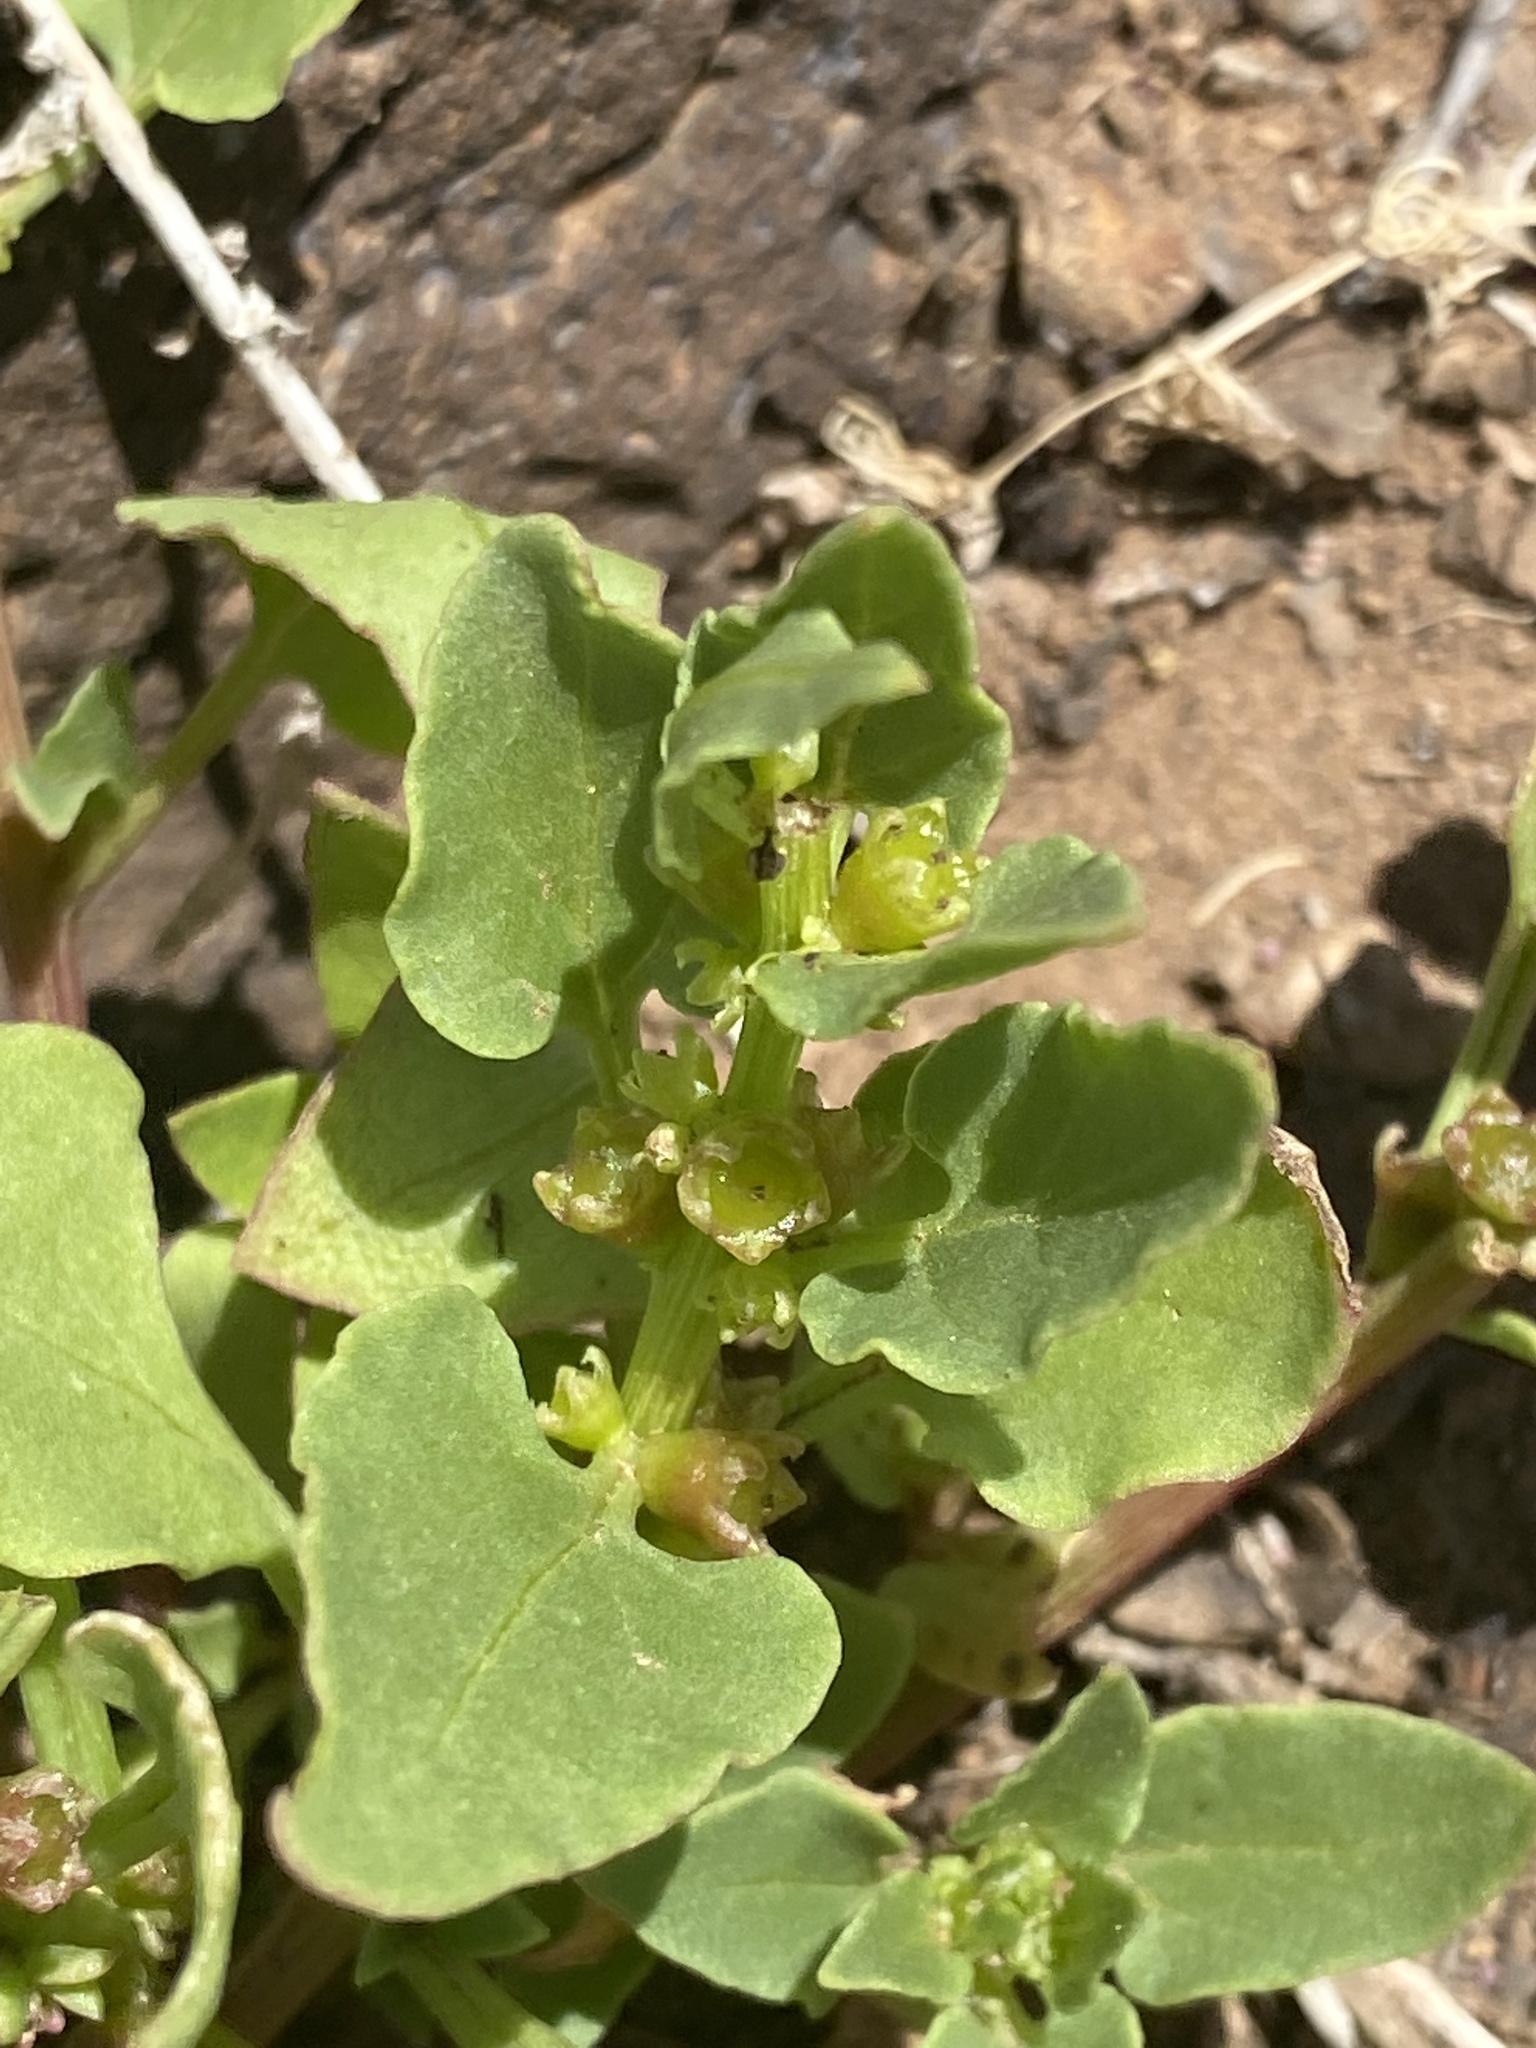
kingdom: Plantae
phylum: Tracheophyta
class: Magnoliopsida
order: Caryophyllales
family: Amaranthaceae
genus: Patellifolia
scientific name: Patellifolia procumbens
